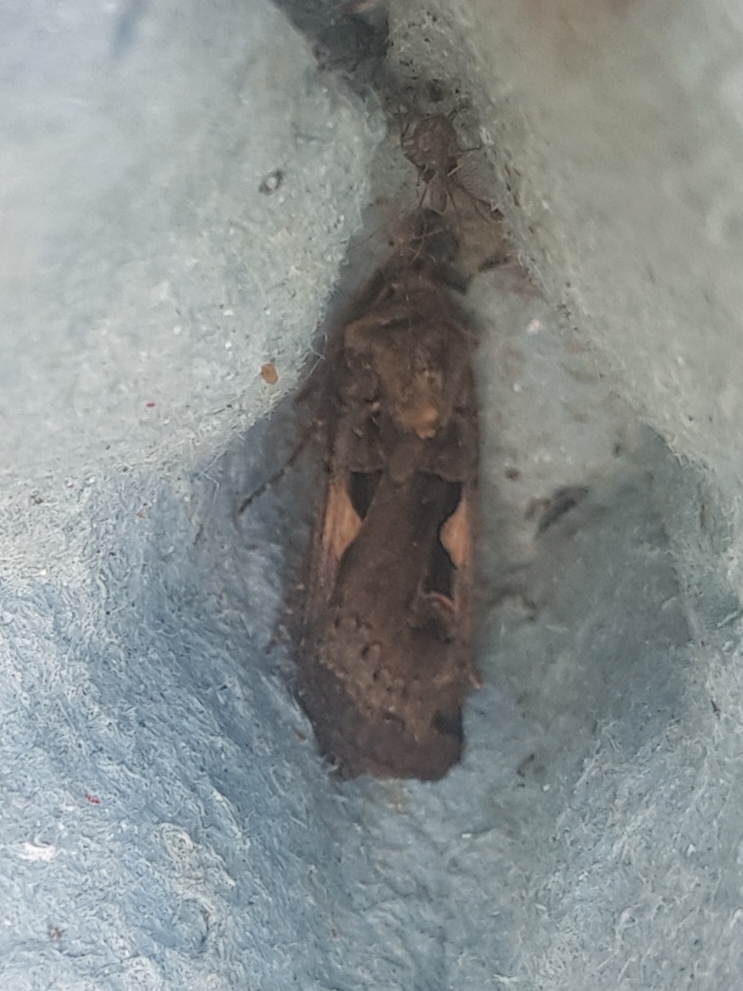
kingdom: Animalia
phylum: Arthropoda
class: Insecta
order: Lepidoptera
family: Noctuidae
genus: Xestia
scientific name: Xestia c-nigrum
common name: Setaceous hebrew character
